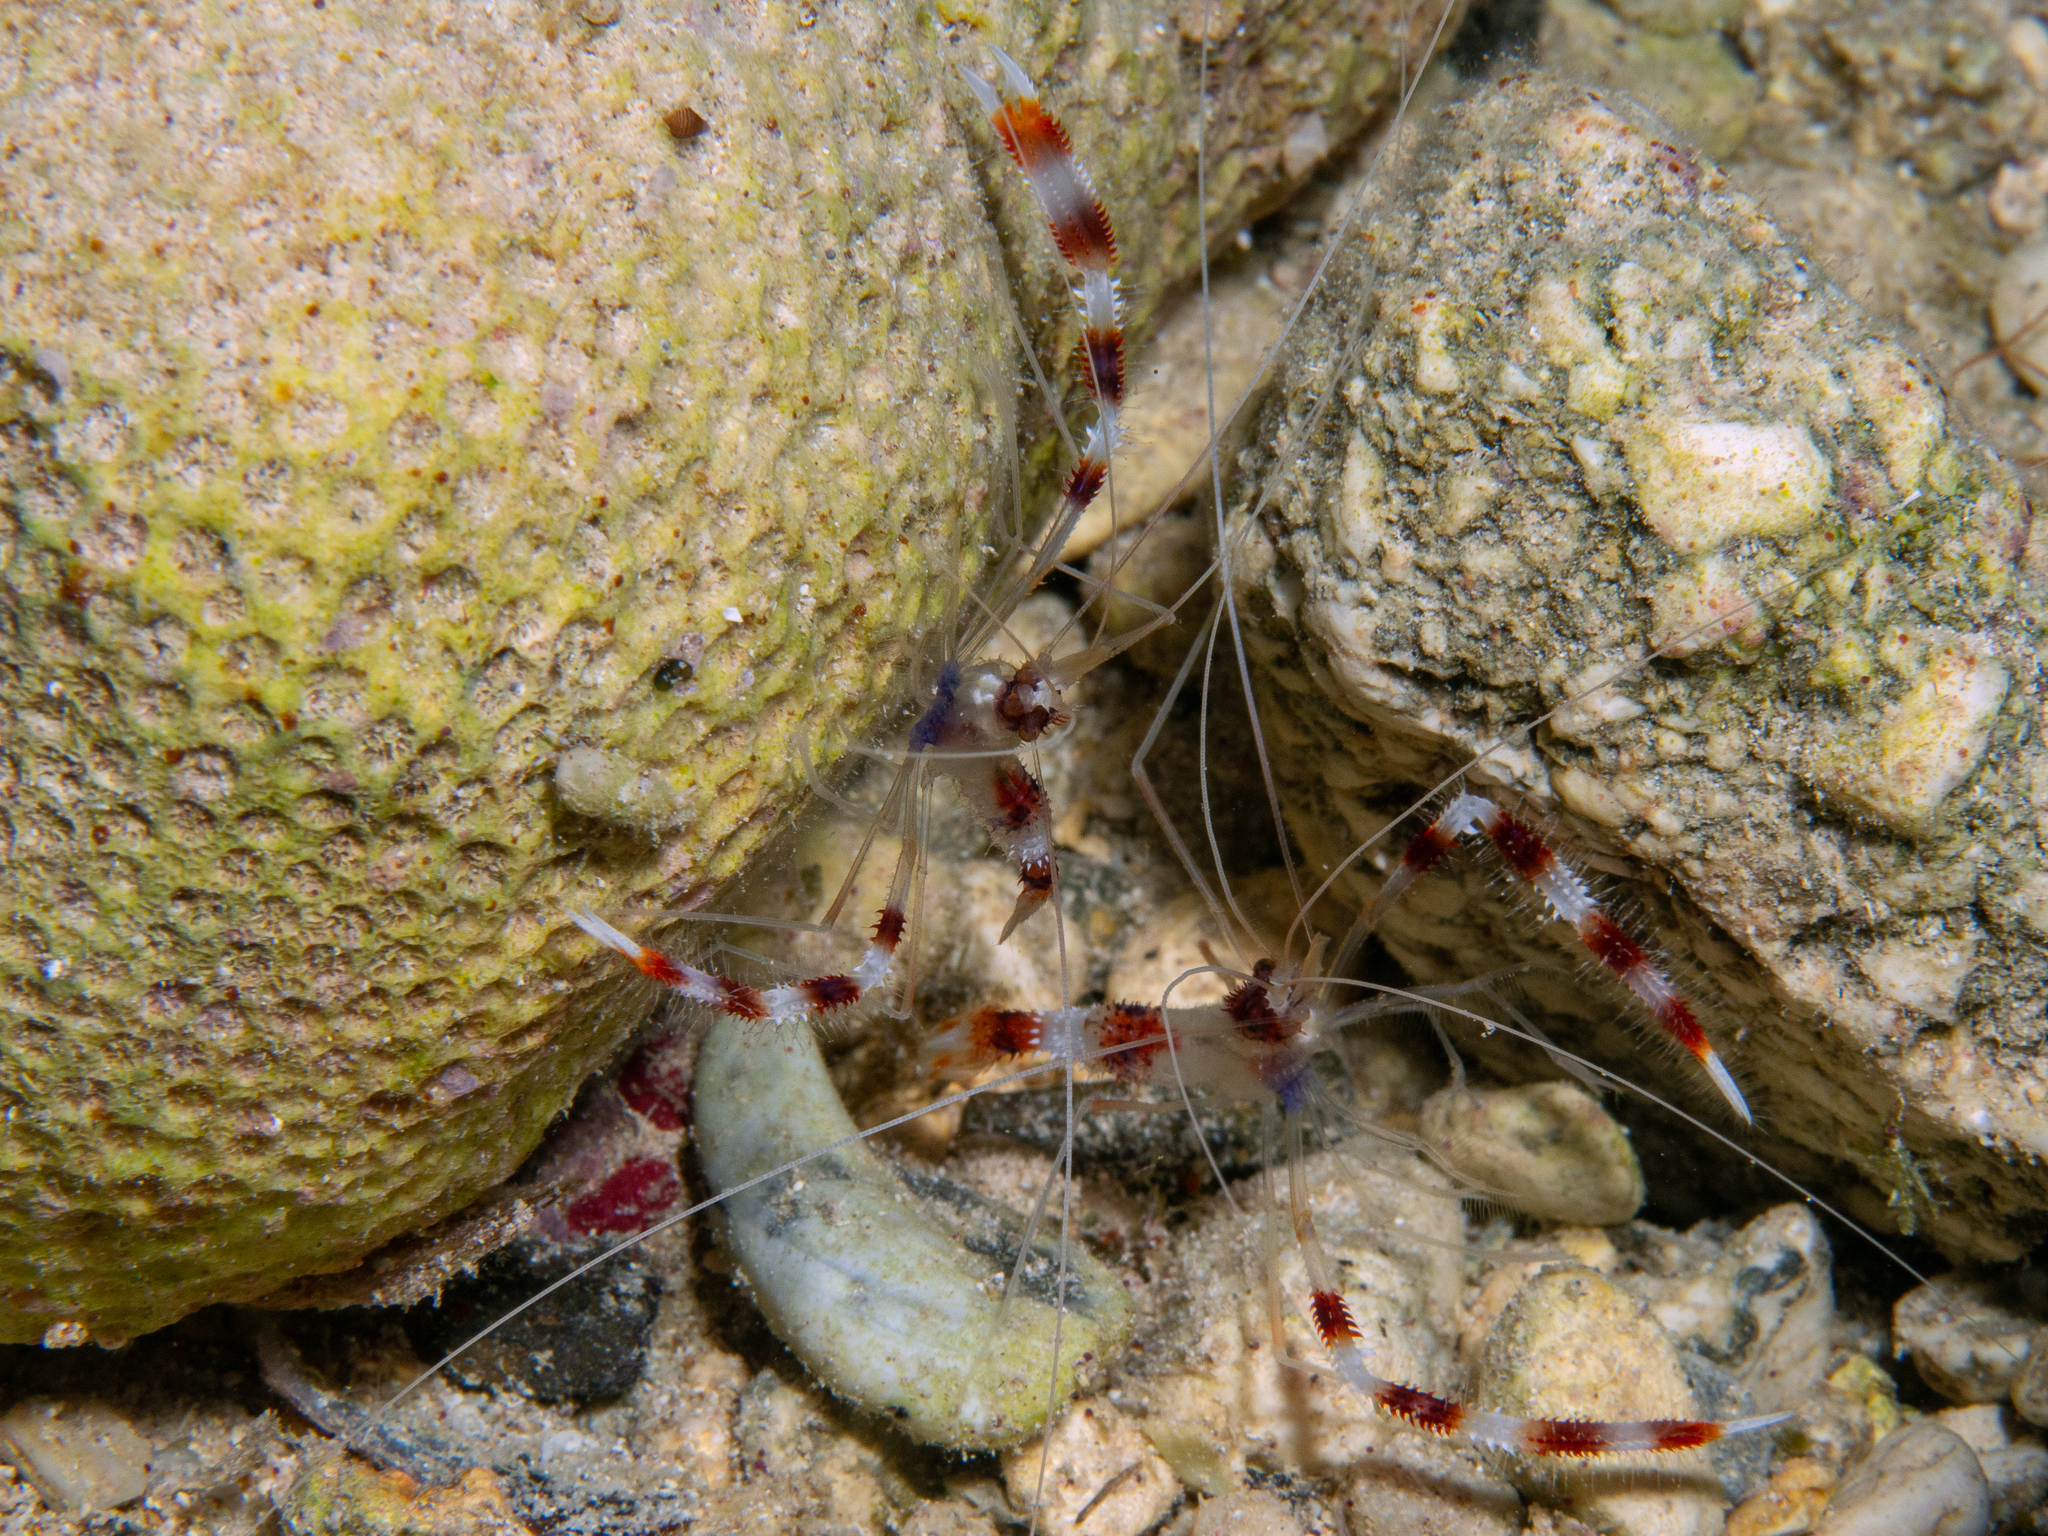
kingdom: Animalia
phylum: Arthropoda
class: Malacostraca
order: Decapoda
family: Stenopodidae
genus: Stenopus
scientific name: Stenopus hispidus
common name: Banded coral shrimp
